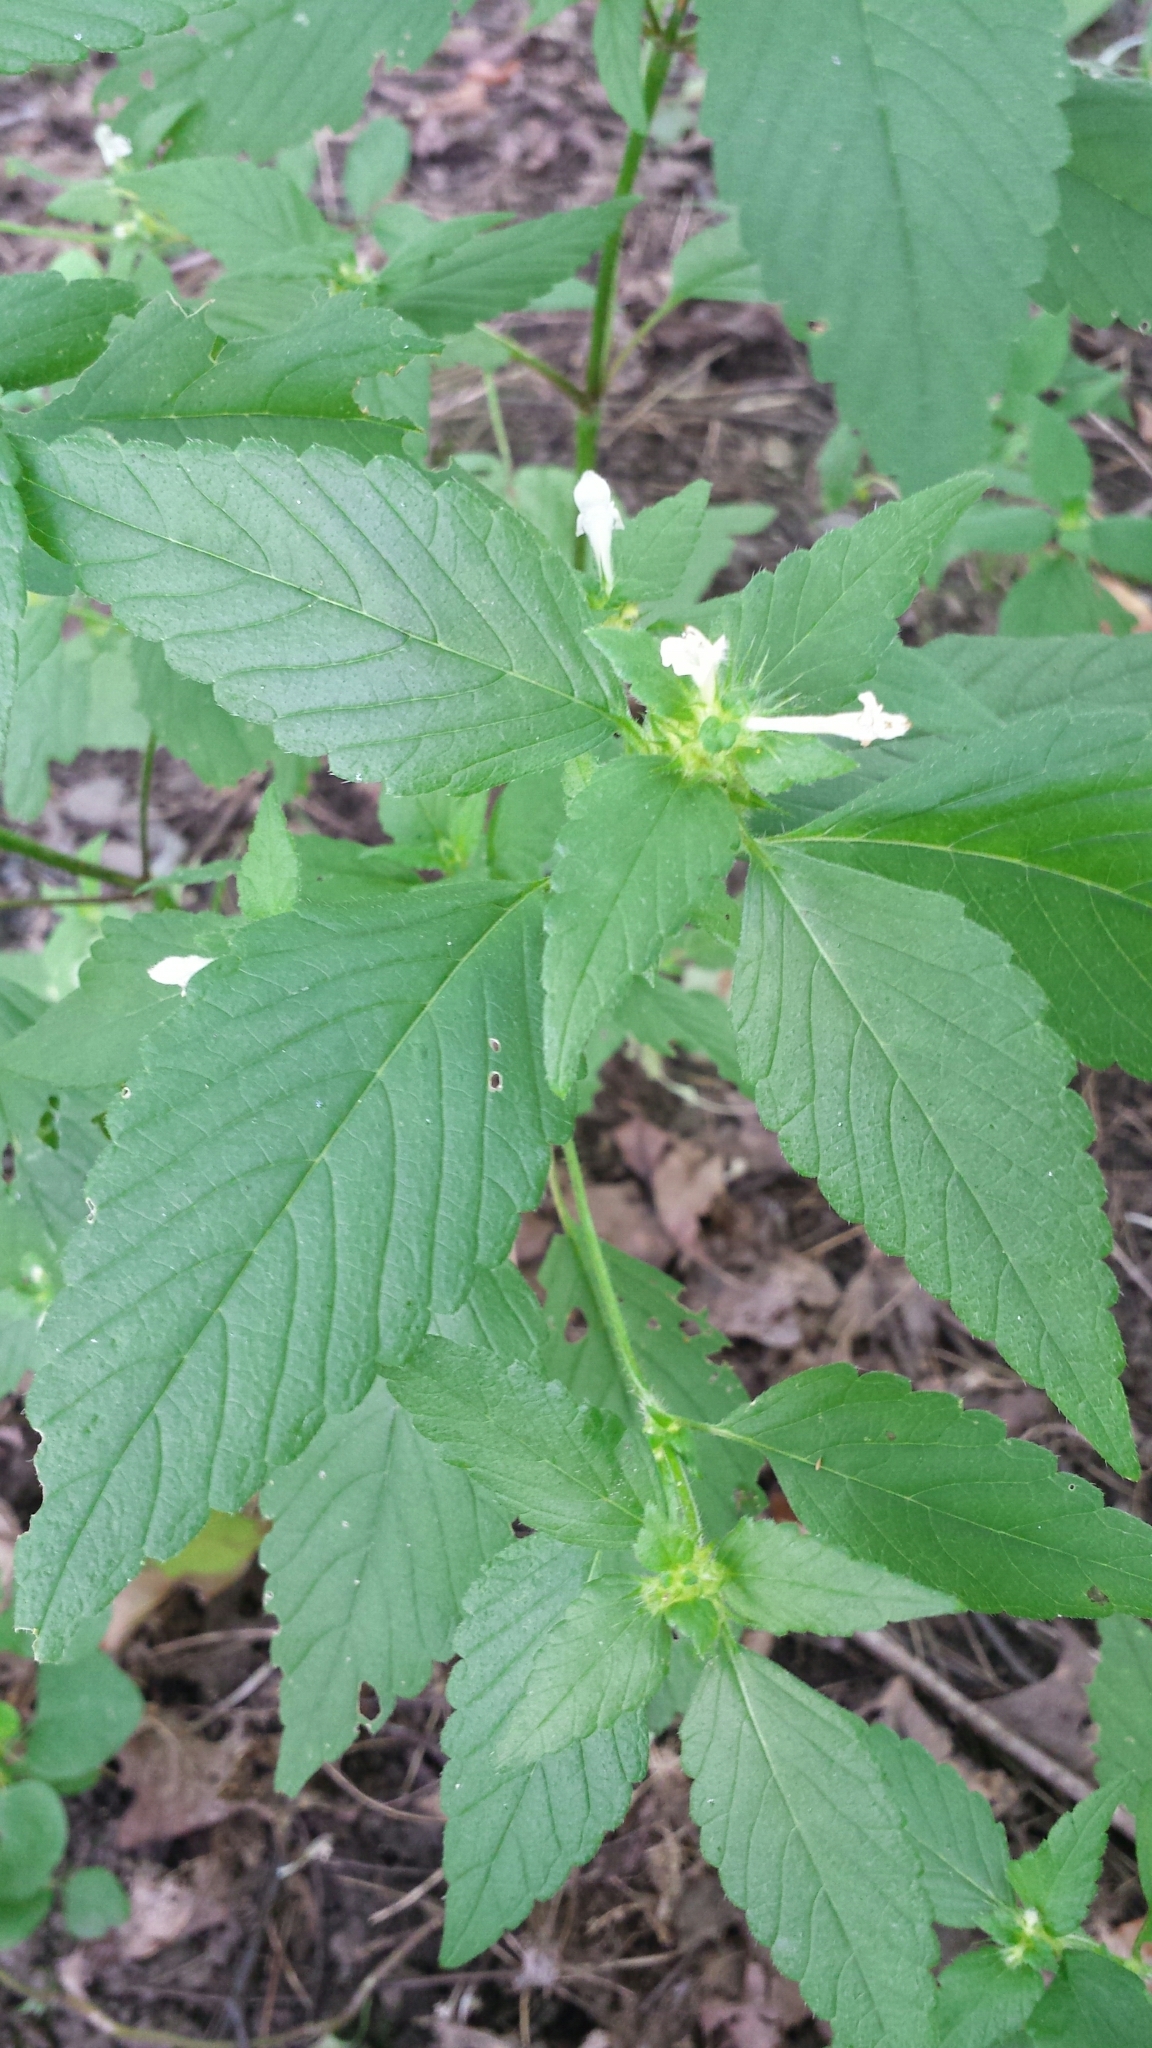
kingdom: Plantae
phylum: Tracheophyta
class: Magnoliopsida
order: Lamiales
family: Lamiaceae
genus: Galeopsis
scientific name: Galeopsis tetrahit
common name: Common hemp-nettle
